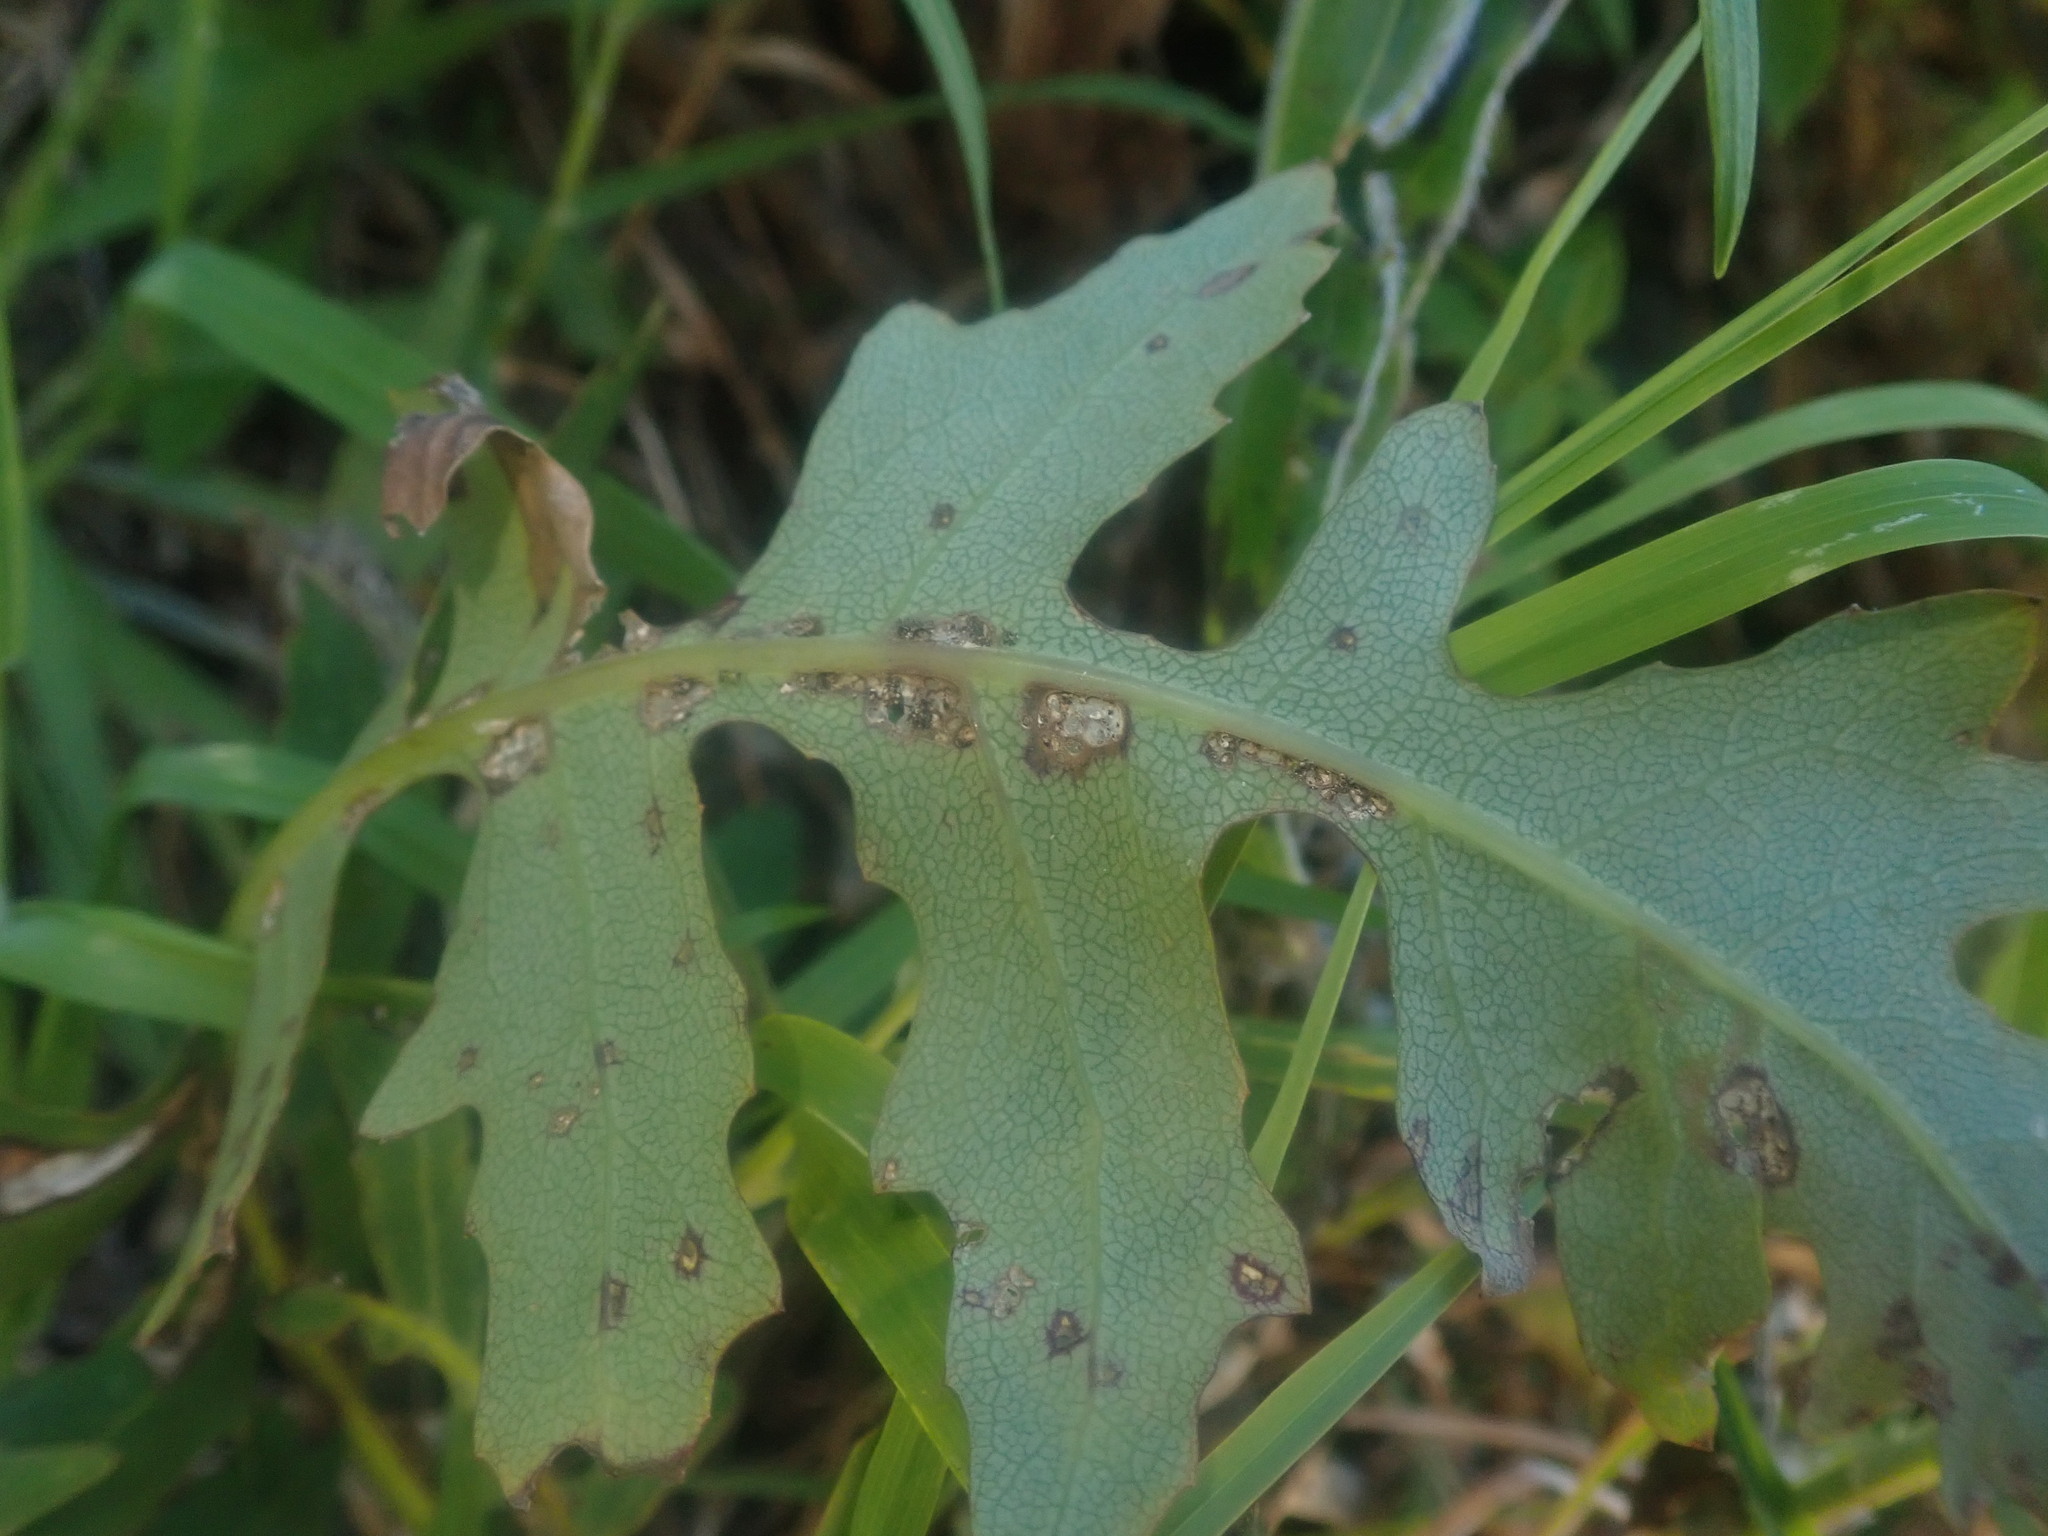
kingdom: Plantae
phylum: Tracheophyta
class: Magnoliopsida
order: Asterales
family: Asteraceae
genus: Sonchus
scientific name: Sonchus pinnatus
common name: Wing-leaved sow-thistle
